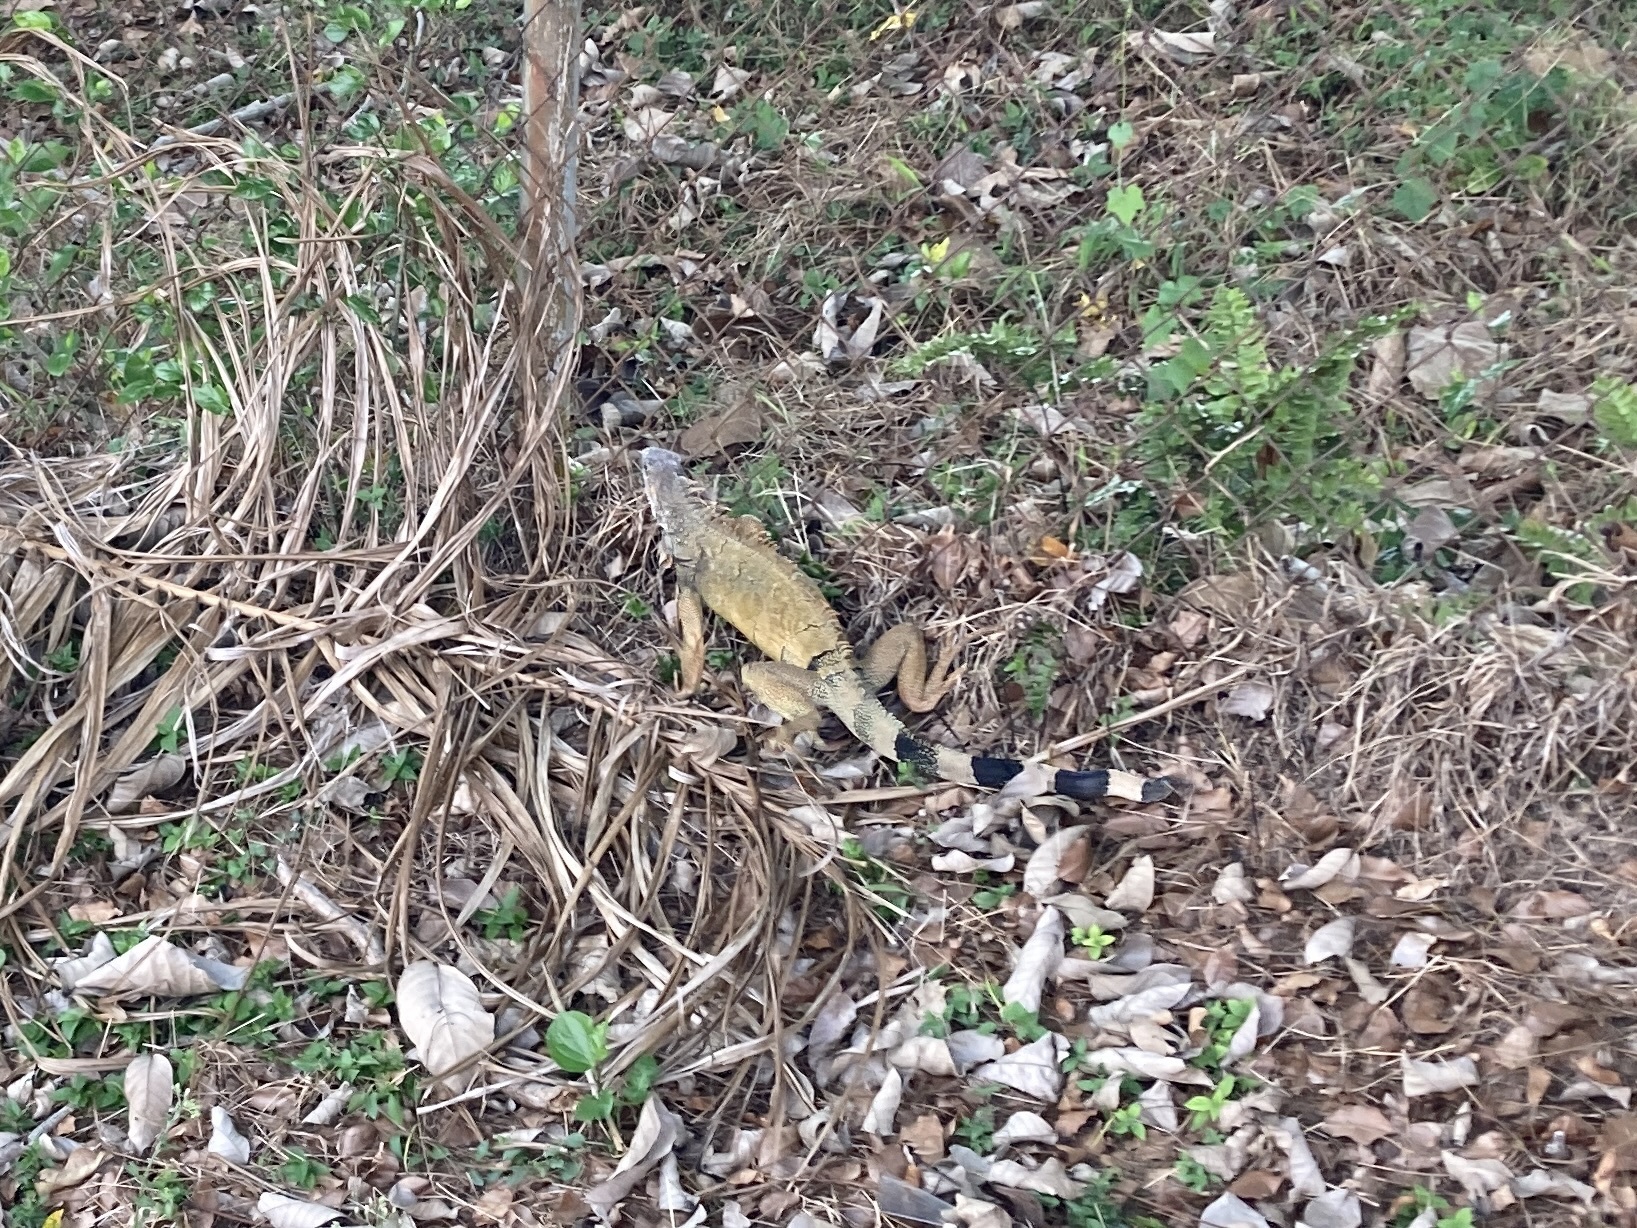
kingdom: Animalia
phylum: Chordata
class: Squamata
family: Iguanidae
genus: Iguana
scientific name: Iguana iguana
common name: Green iguana
